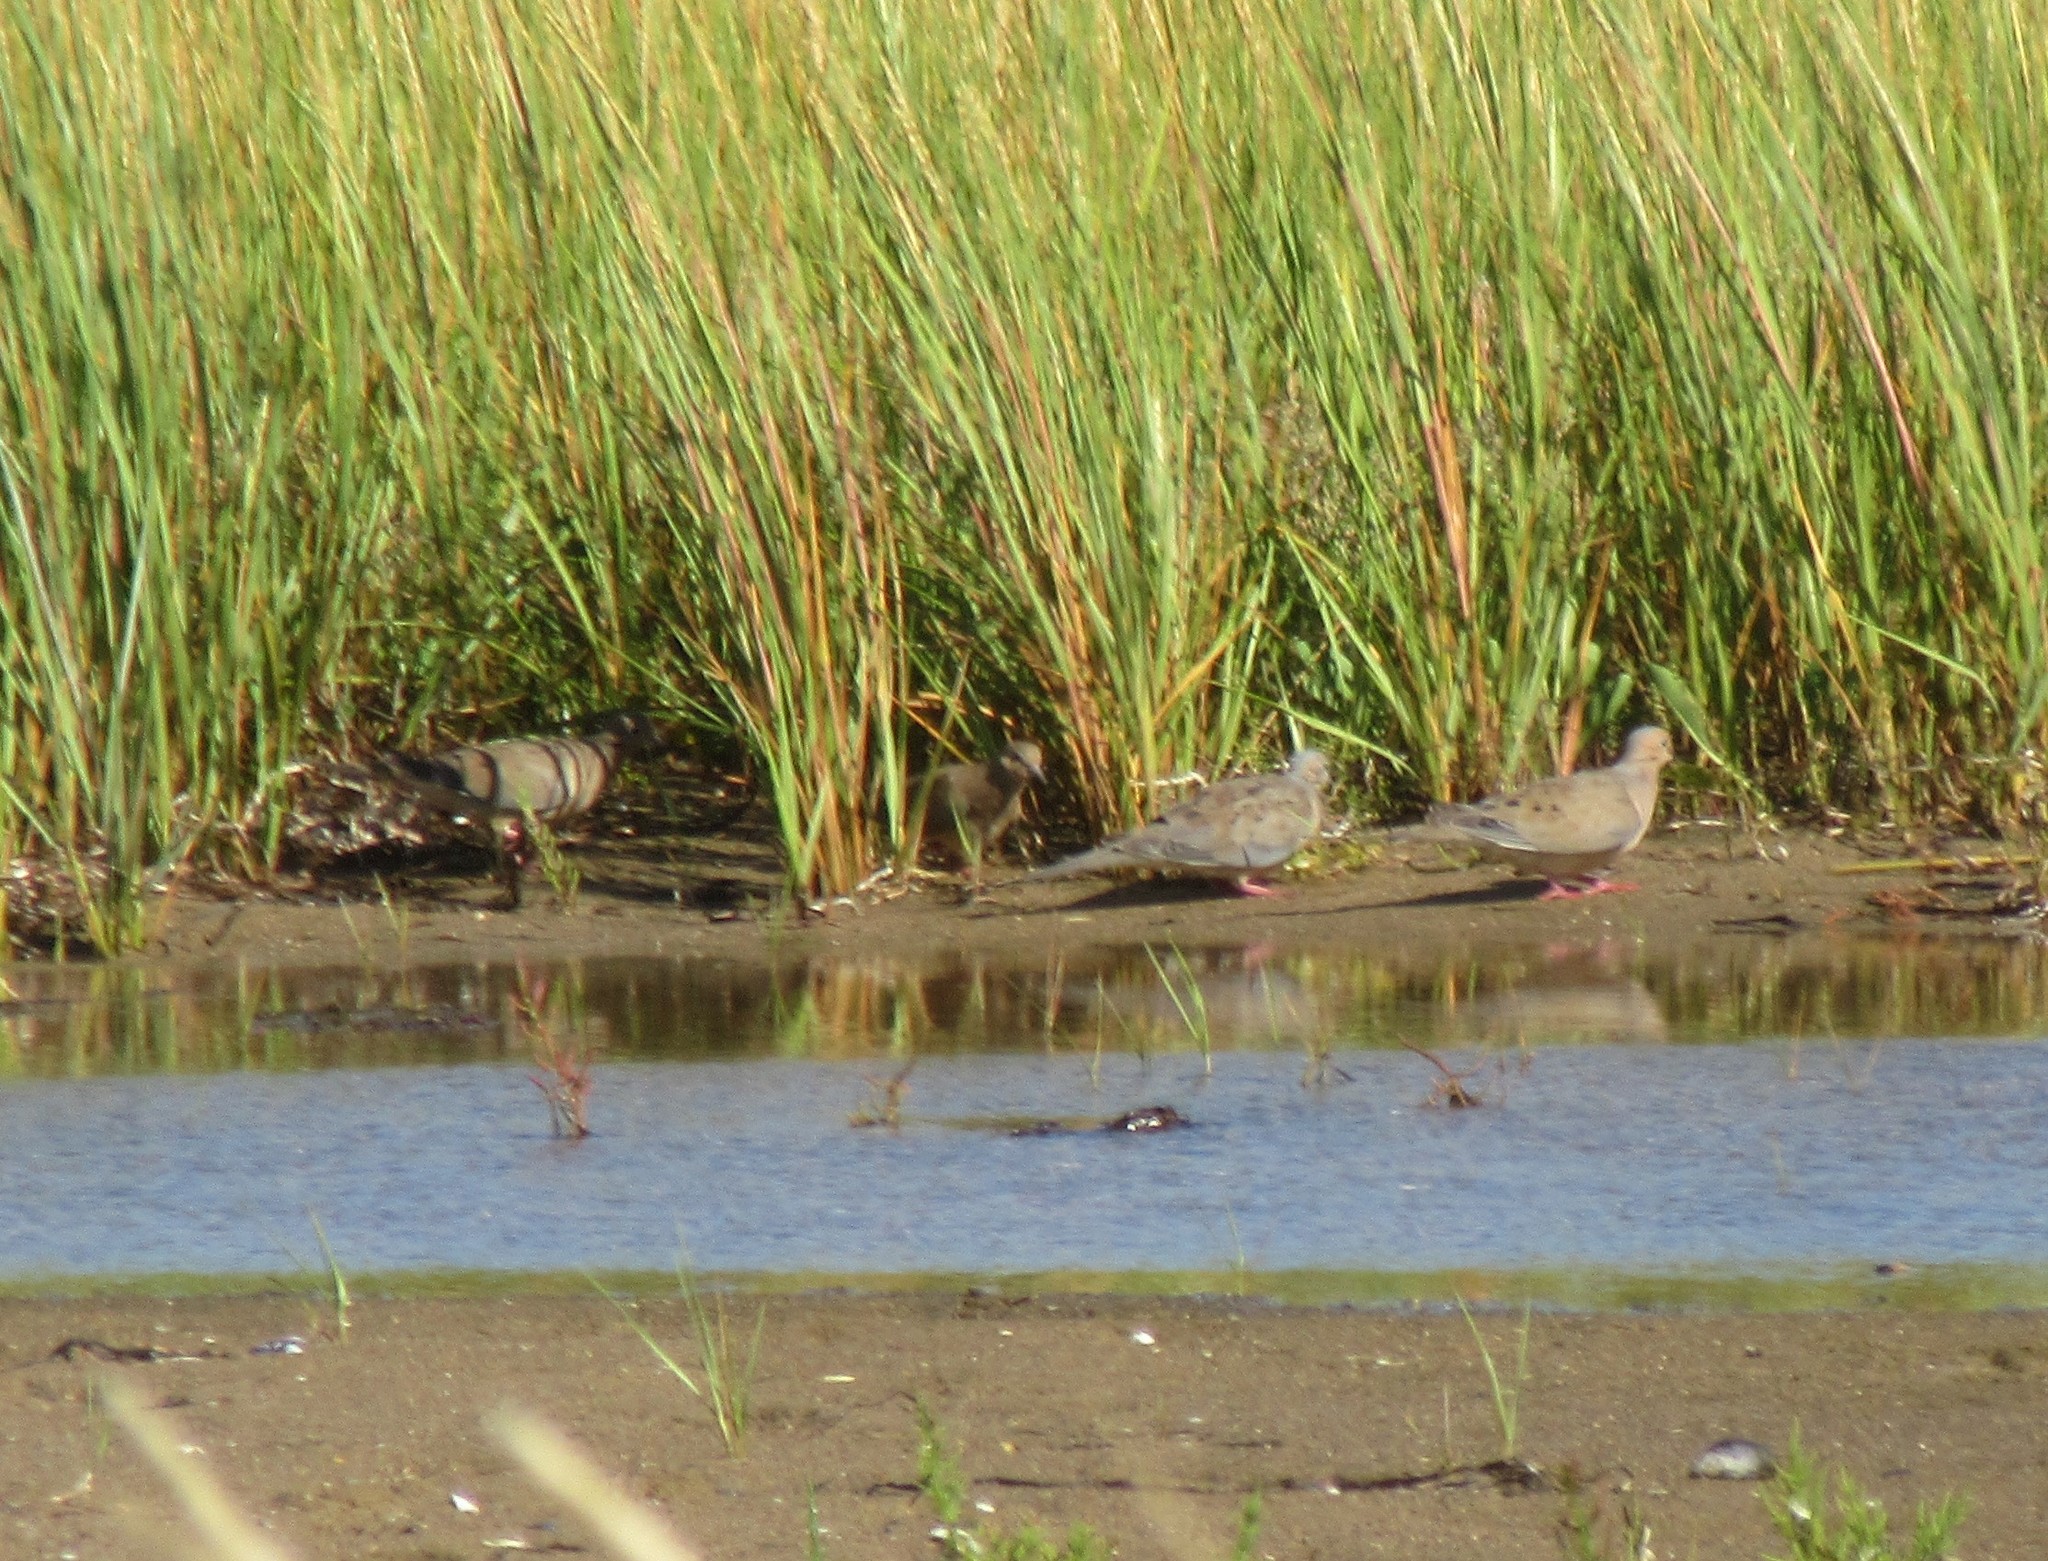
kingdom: Animalia
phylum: Chordata
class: Aves
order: Columbiformes
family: Columbidae
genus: Zenaida
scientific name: Zenaida macroura
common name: Mourning dove
